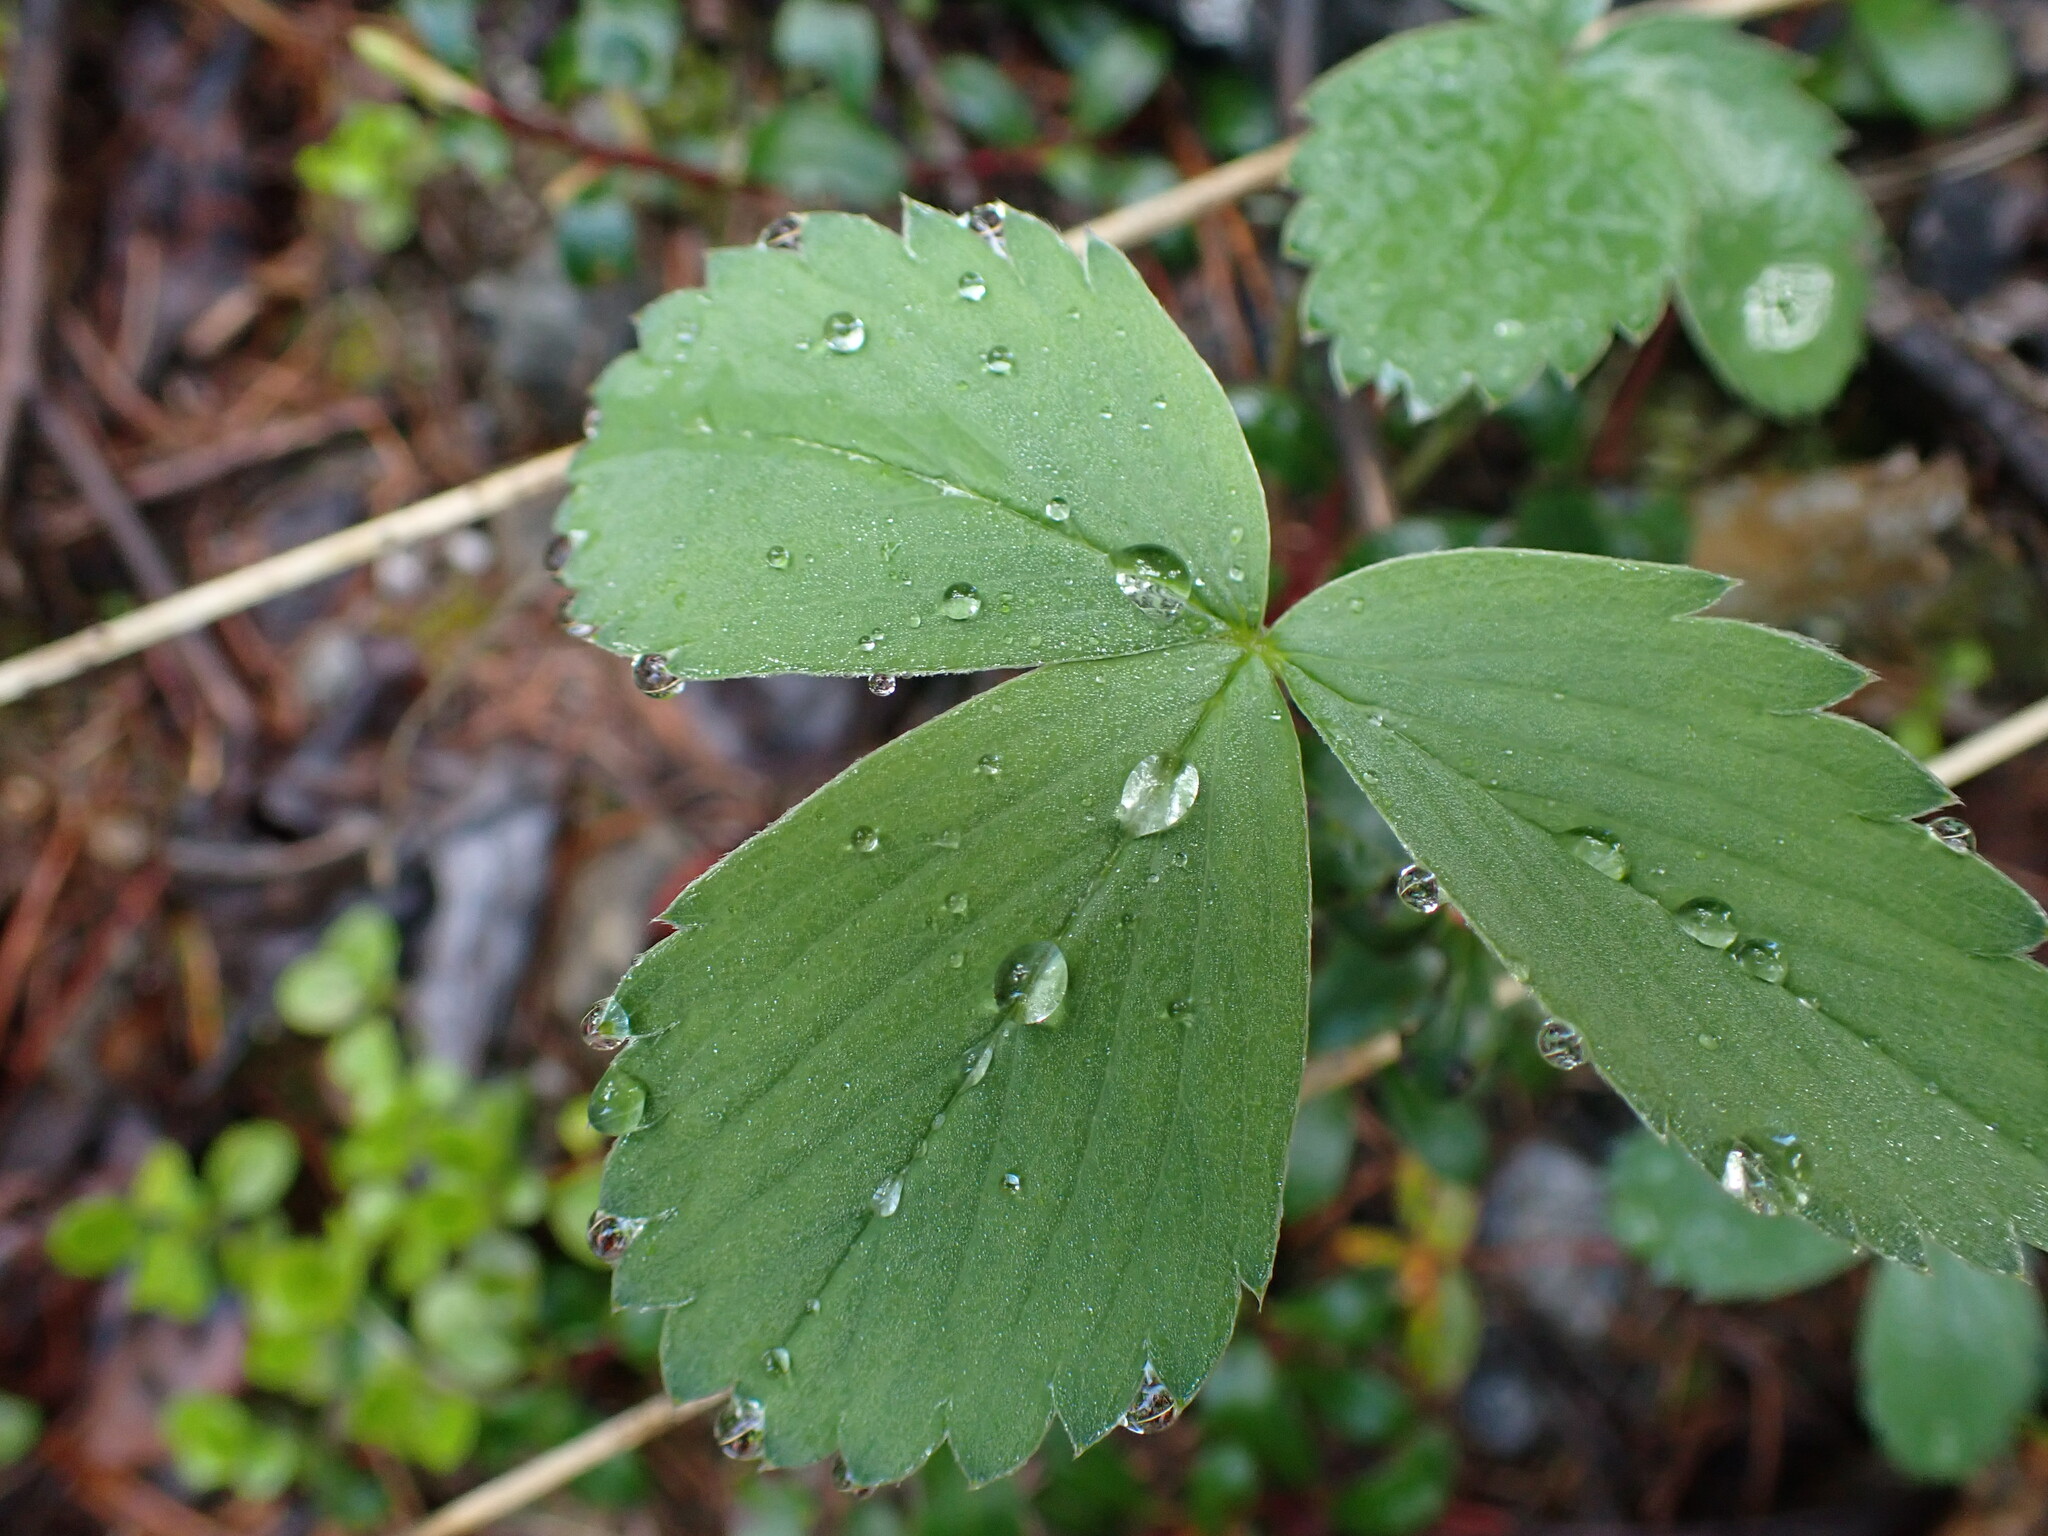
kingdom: Plantae
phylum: Tracheophyta
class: Magnoliopsida
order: Rosales
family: Rosaceae
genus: Fragaria
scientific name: Fragaria virginiana
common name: Thickleaved wild strawberry
